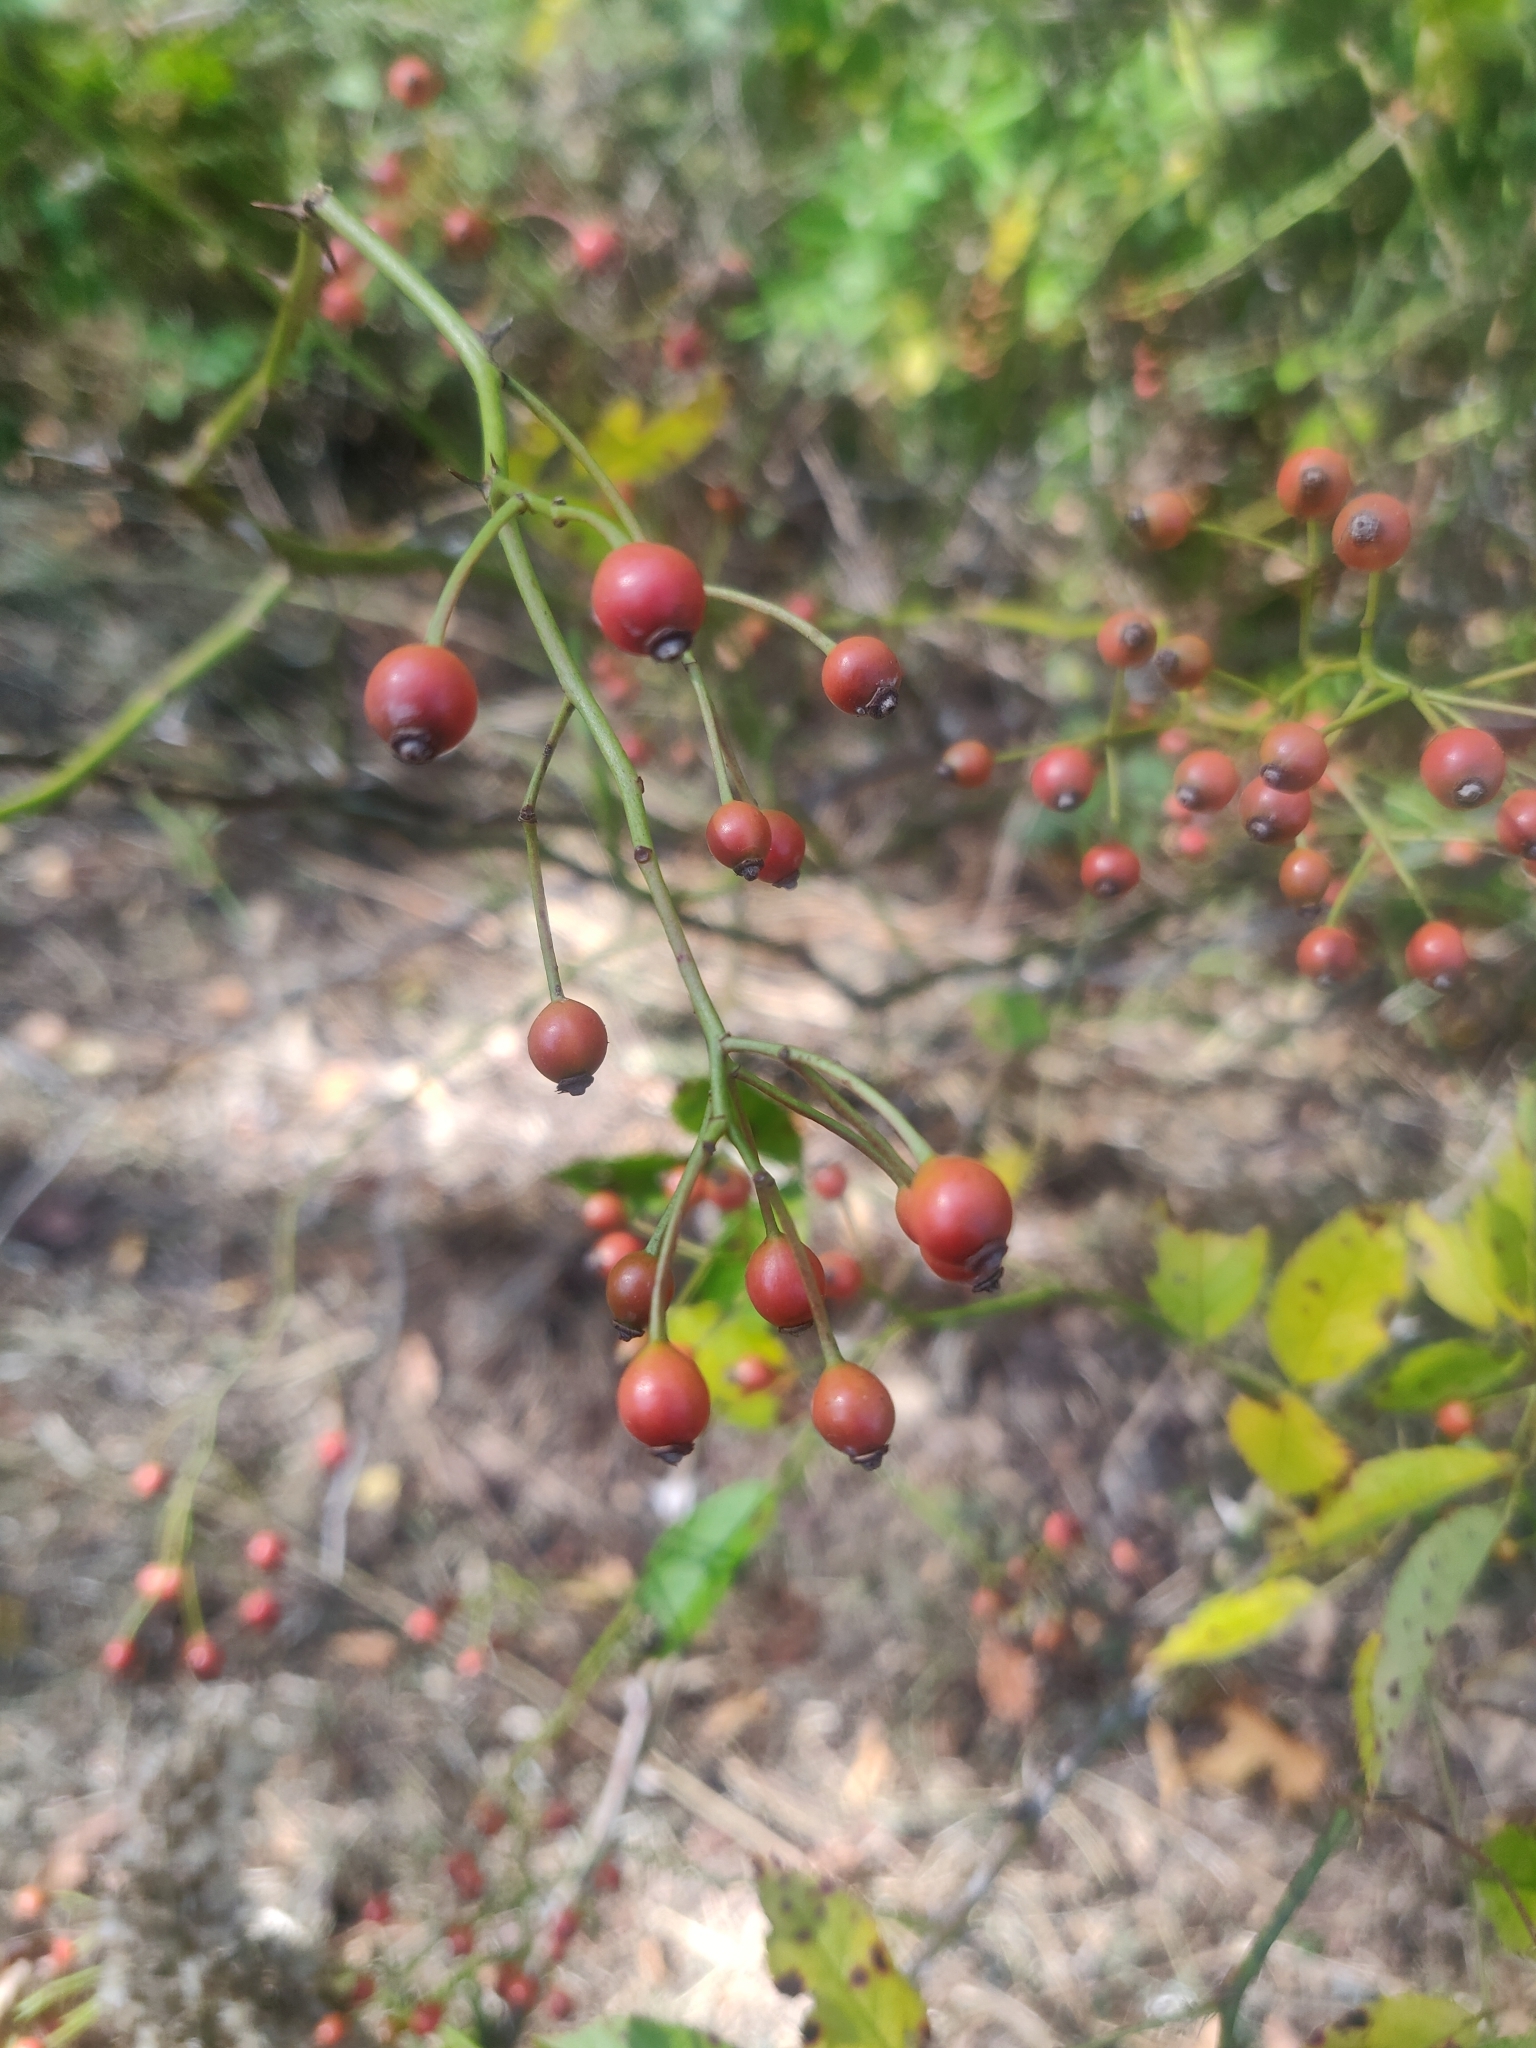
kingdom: Plantae
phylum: Tracheophyta
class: Magnoliopsida
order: Rosales
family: Rosaceae
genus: Rosa
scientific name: Rosa multiflora
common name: Multiflora rose
